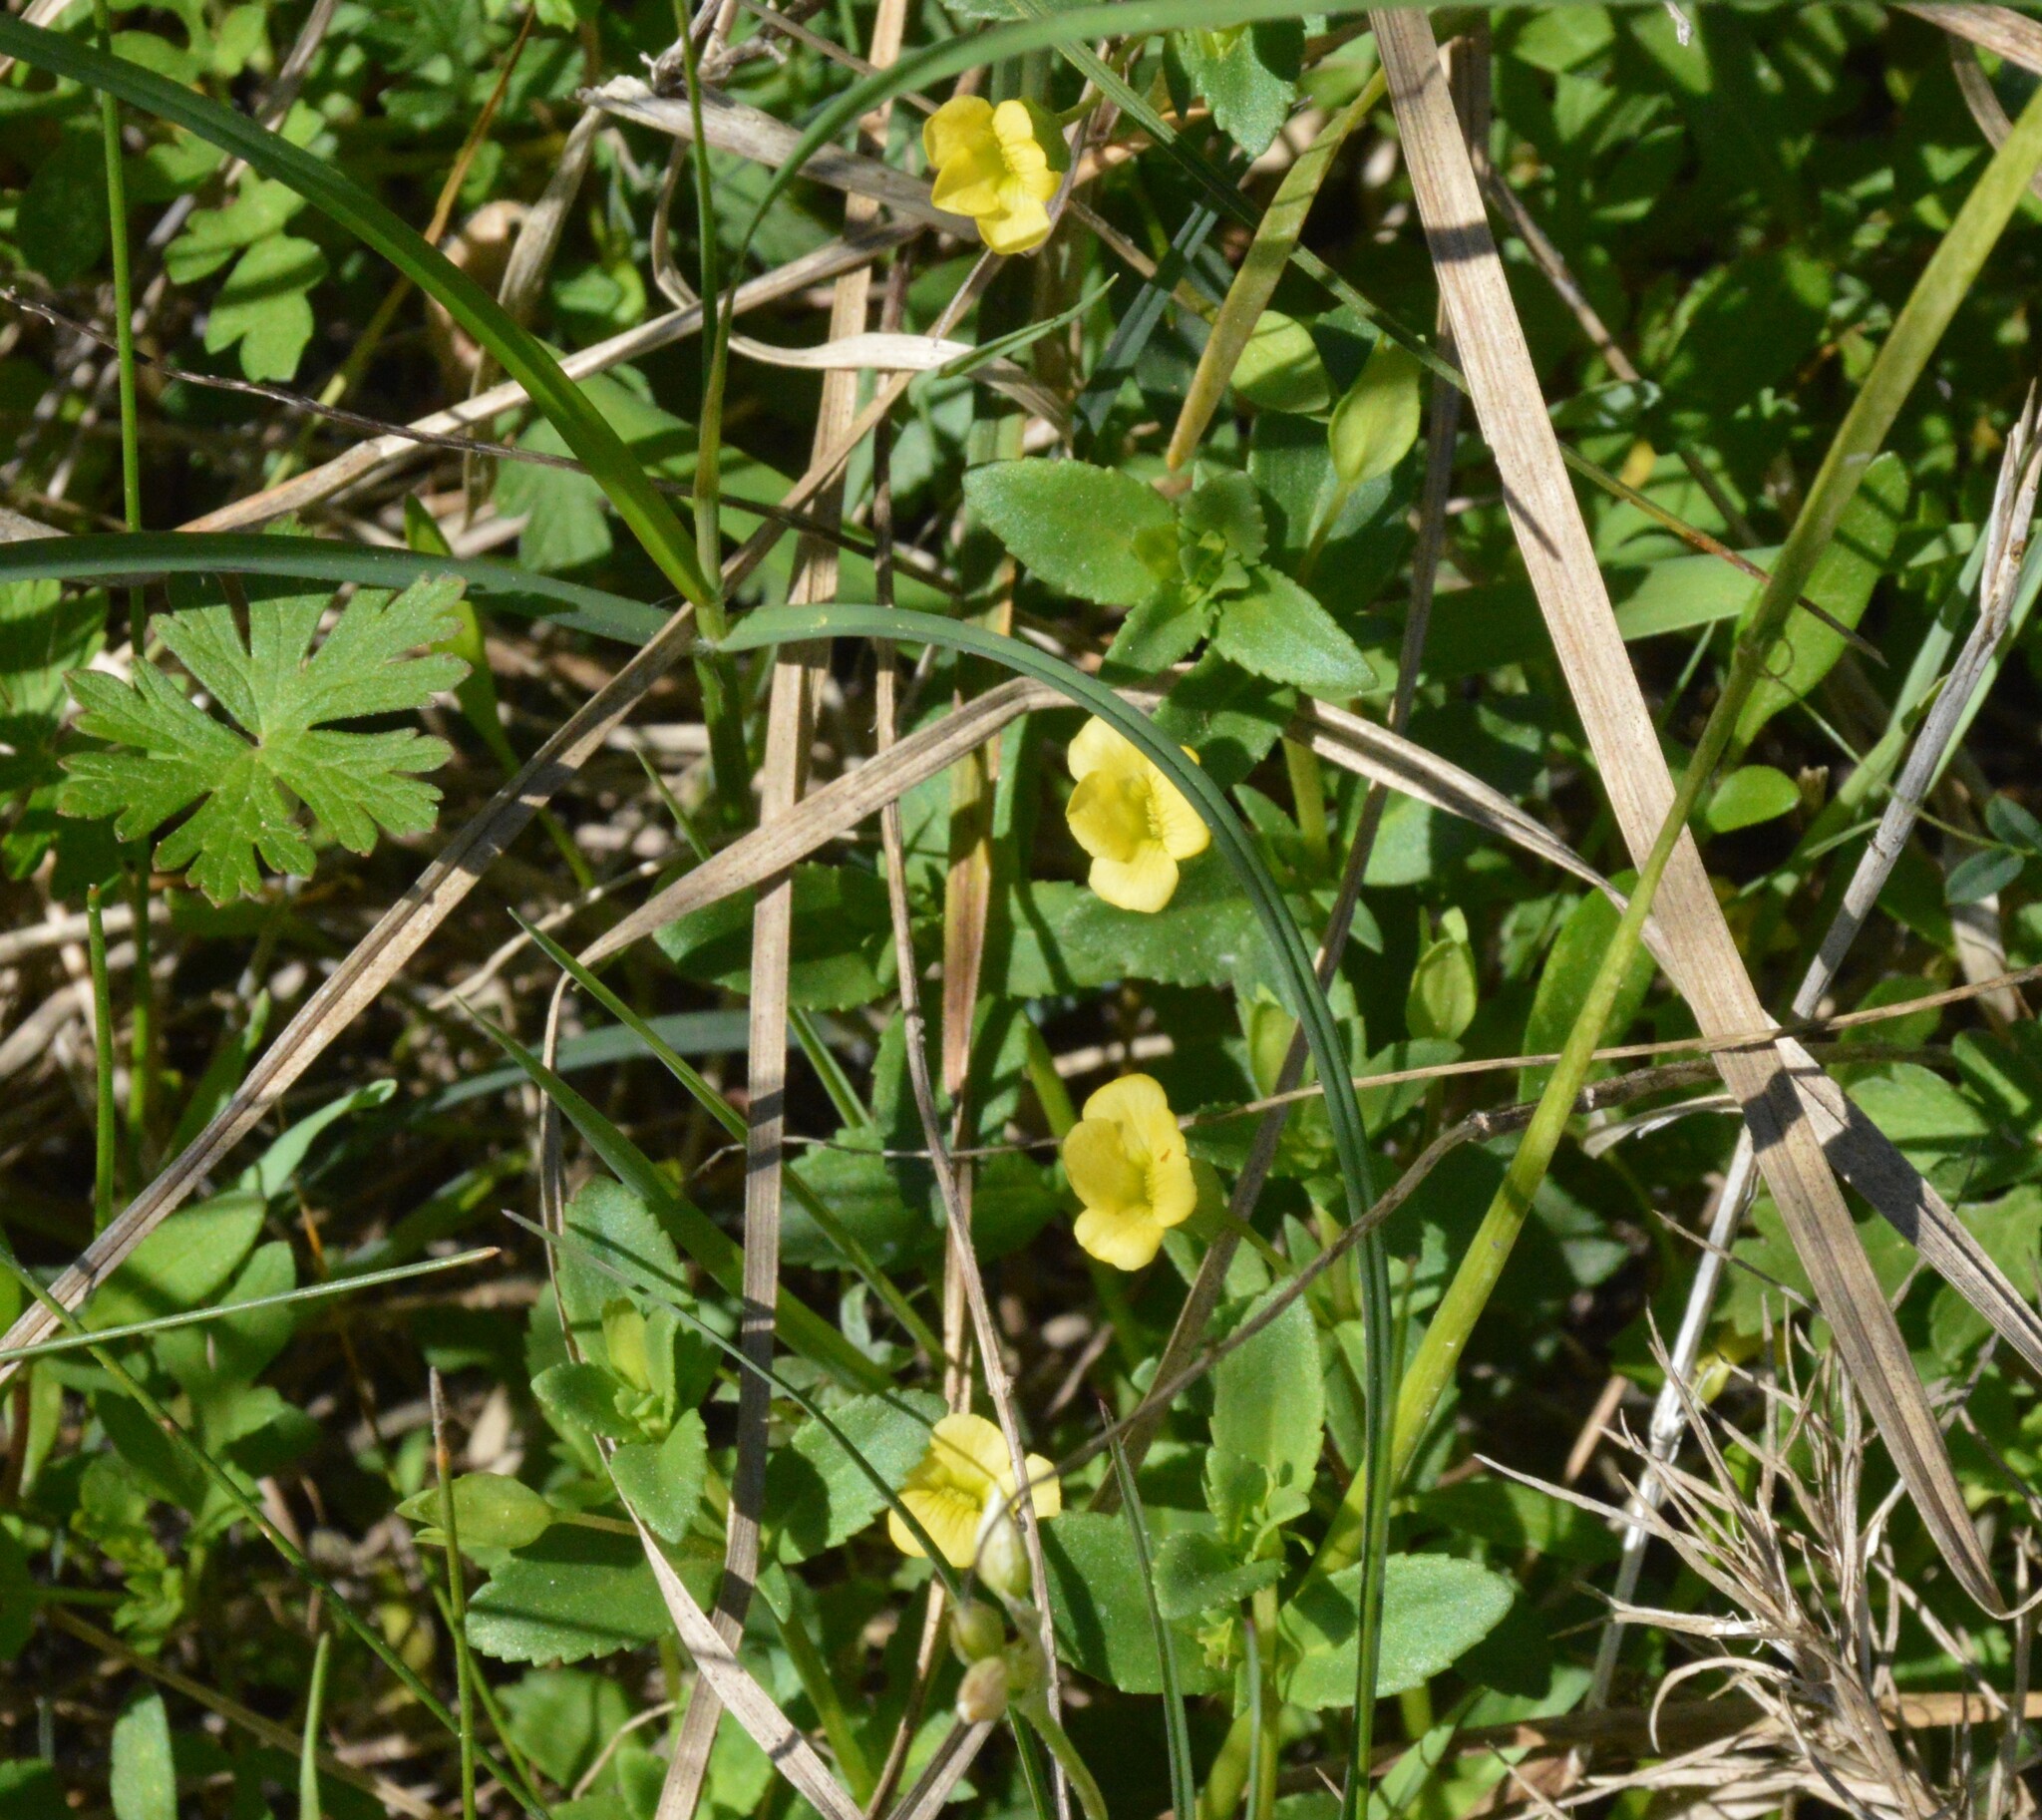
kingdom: Plantae
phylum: Tracheophyta
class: Magnoliopsida
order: Lamiales
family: Plantaginaceae
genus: Mecardonia
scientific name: Mecardonia procumbens
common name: Baby jump-up
